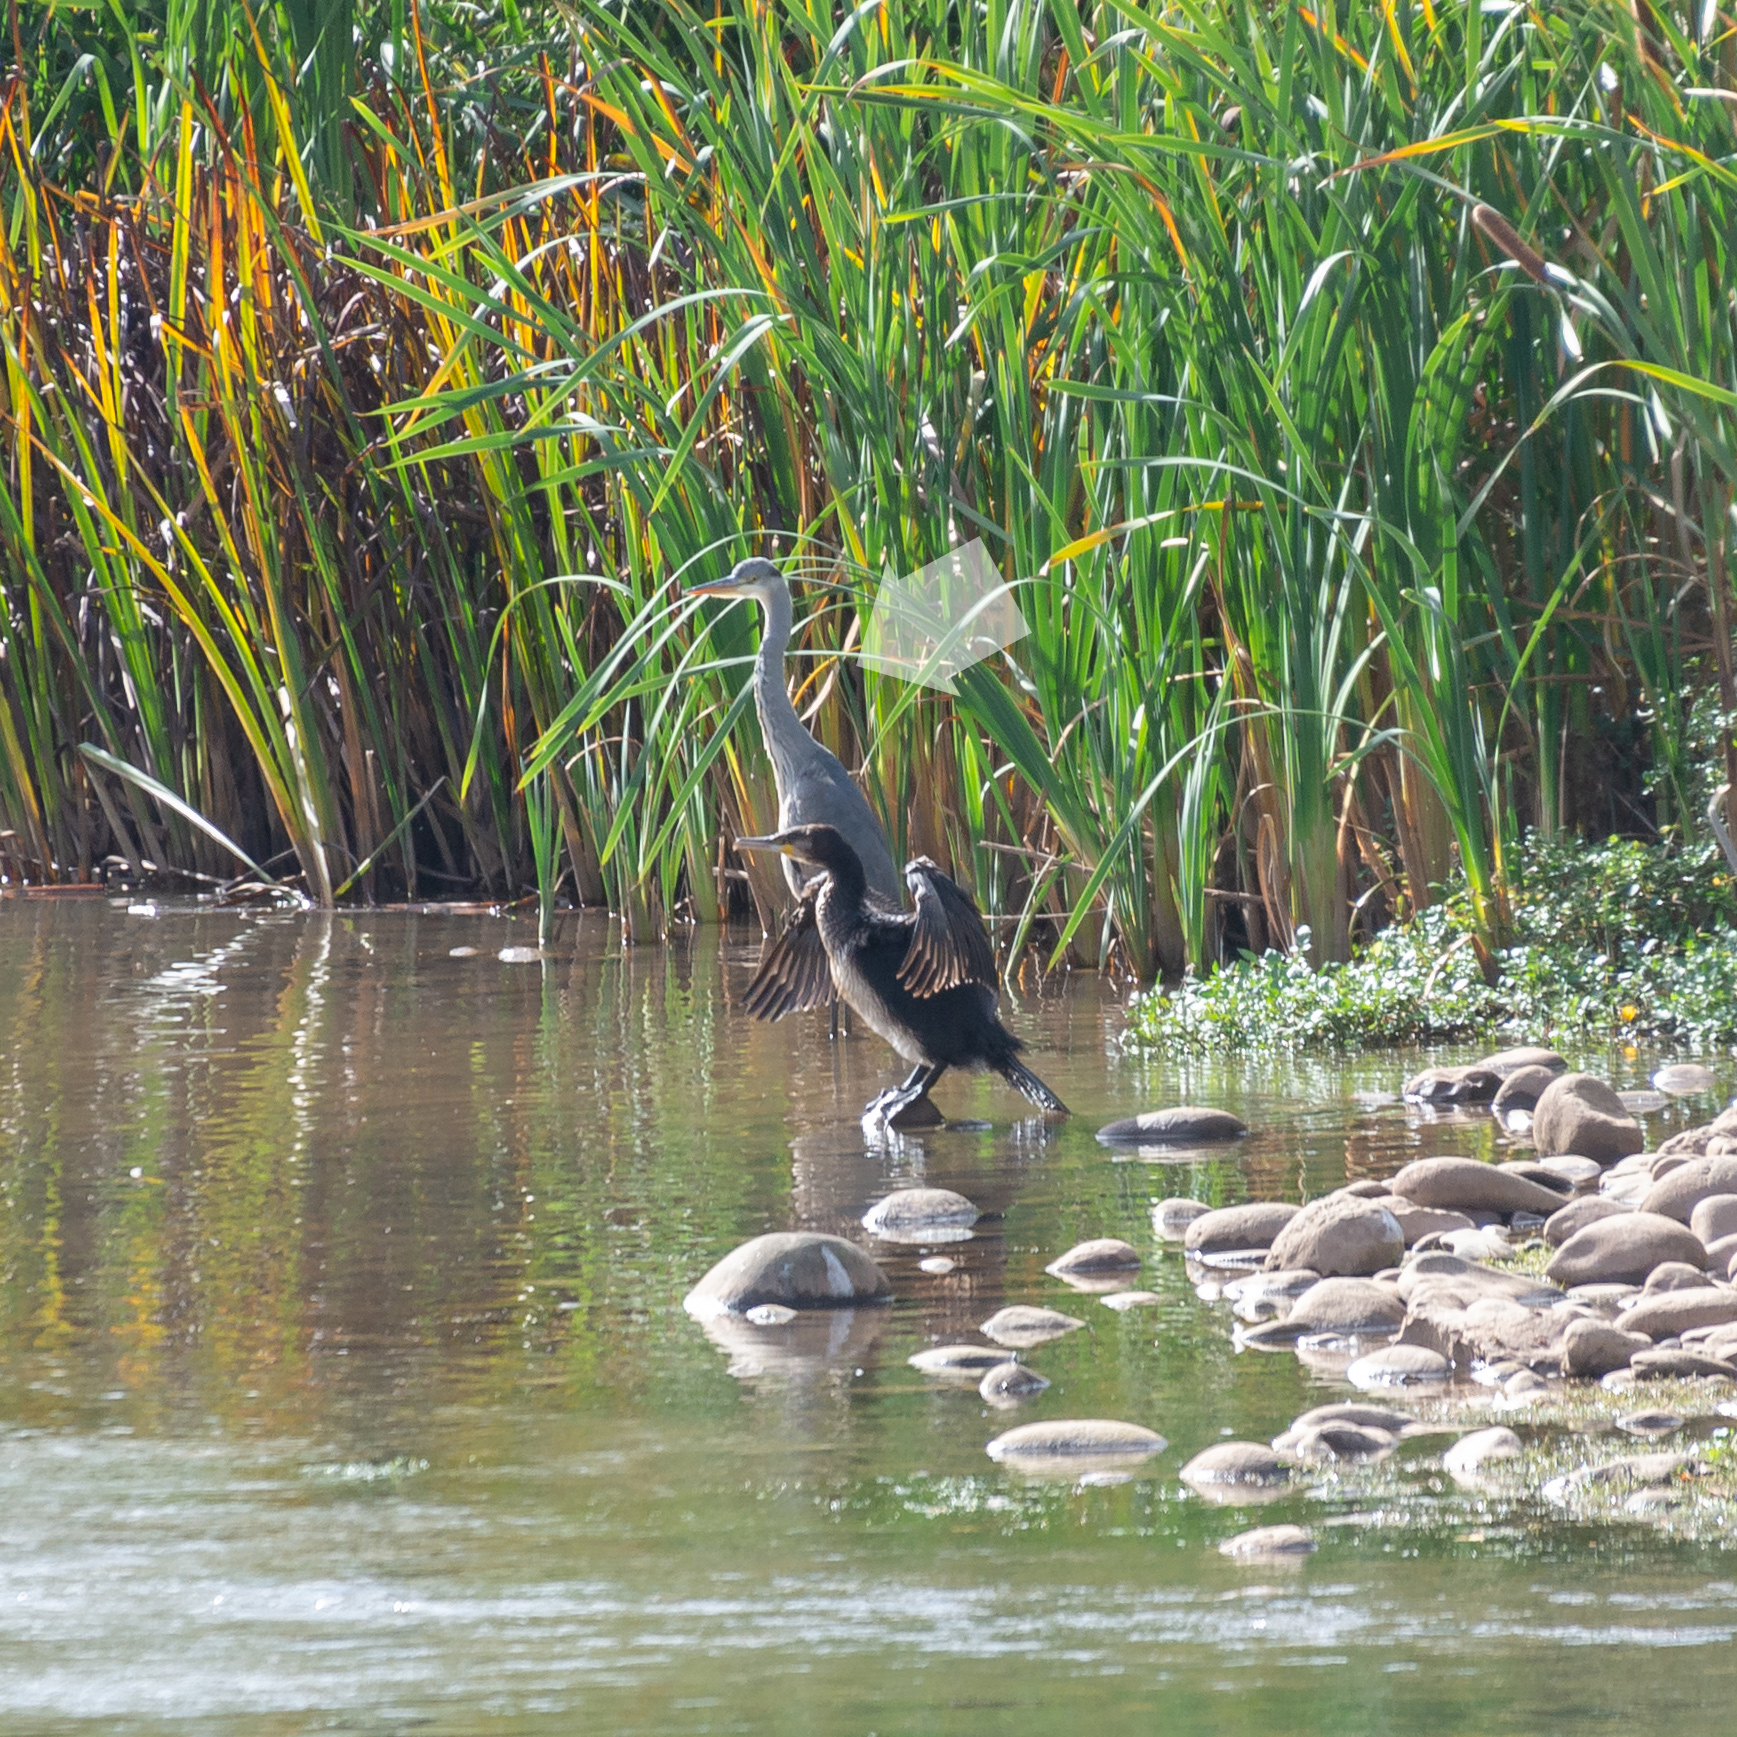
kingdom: Animalia
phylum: Chordata
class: Aves
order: Pelecaniformes
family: Ardeidae
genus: Ardea
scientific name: Ardea cinerea
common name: Grey heron
